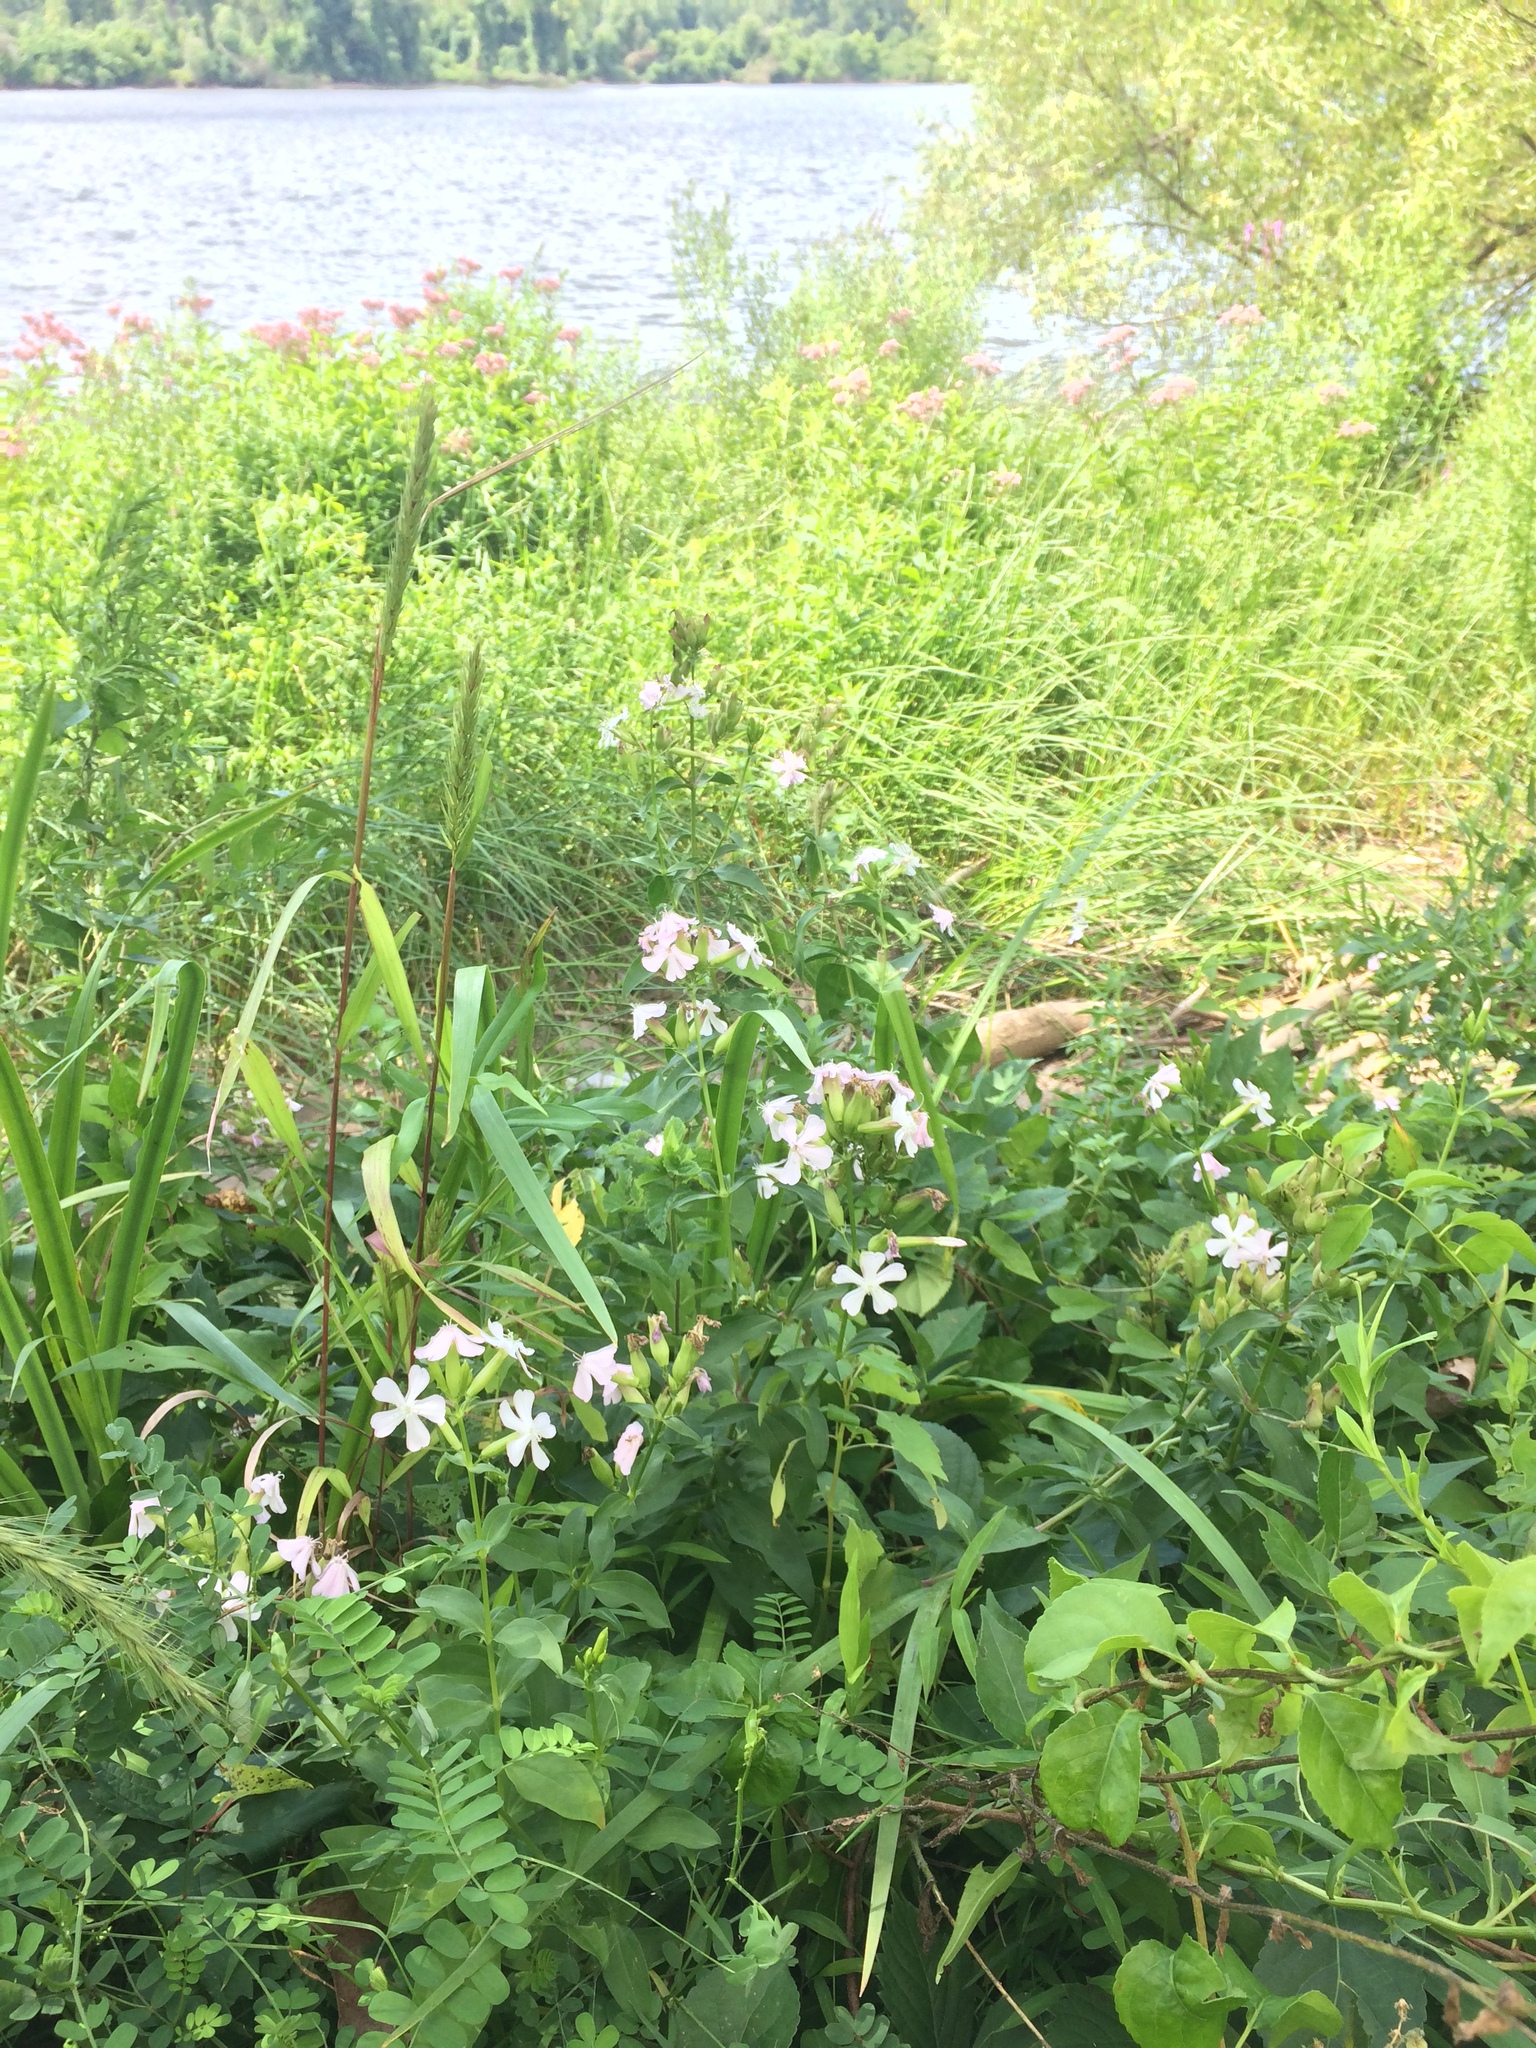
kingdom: Plantae
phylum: Tracheophyta
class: Magnoliopsida
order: Caryophyllales
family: Caryophyllaceae
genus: Saponaria
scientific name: Saponaria officinalis
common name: Soapwort
